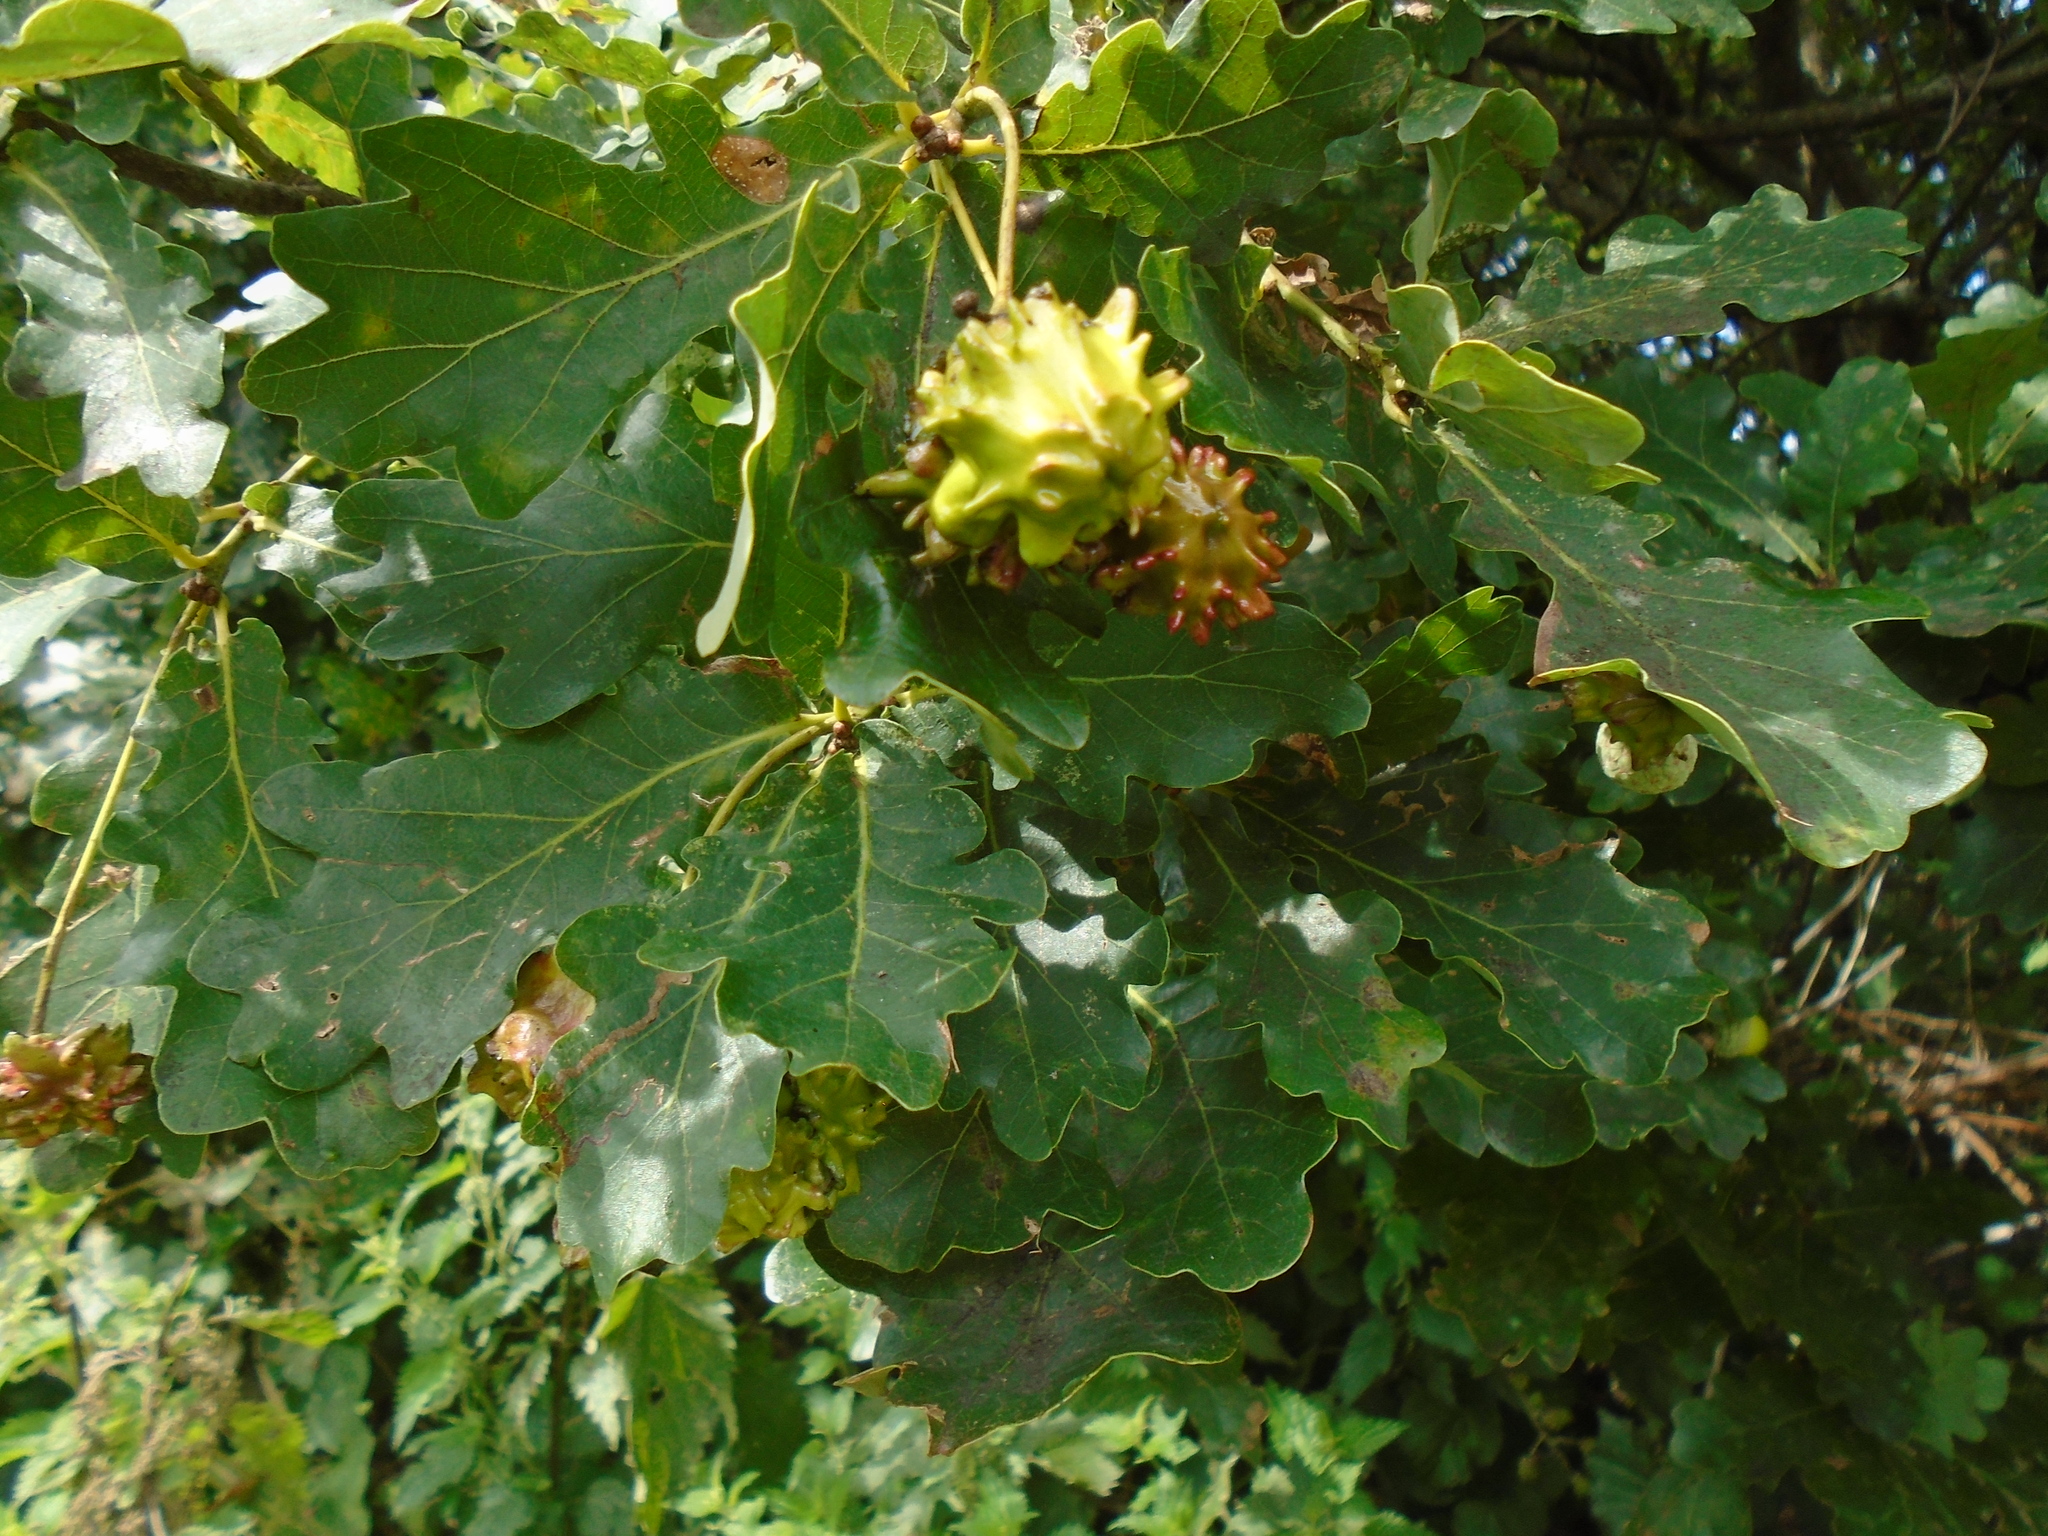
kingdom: Animalia
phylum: Arthropoda
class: Insecta
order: Hymenoptera
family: Cynipidae
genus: Andricus
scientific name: Andricus quercuscalicis
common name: Knopper gall
